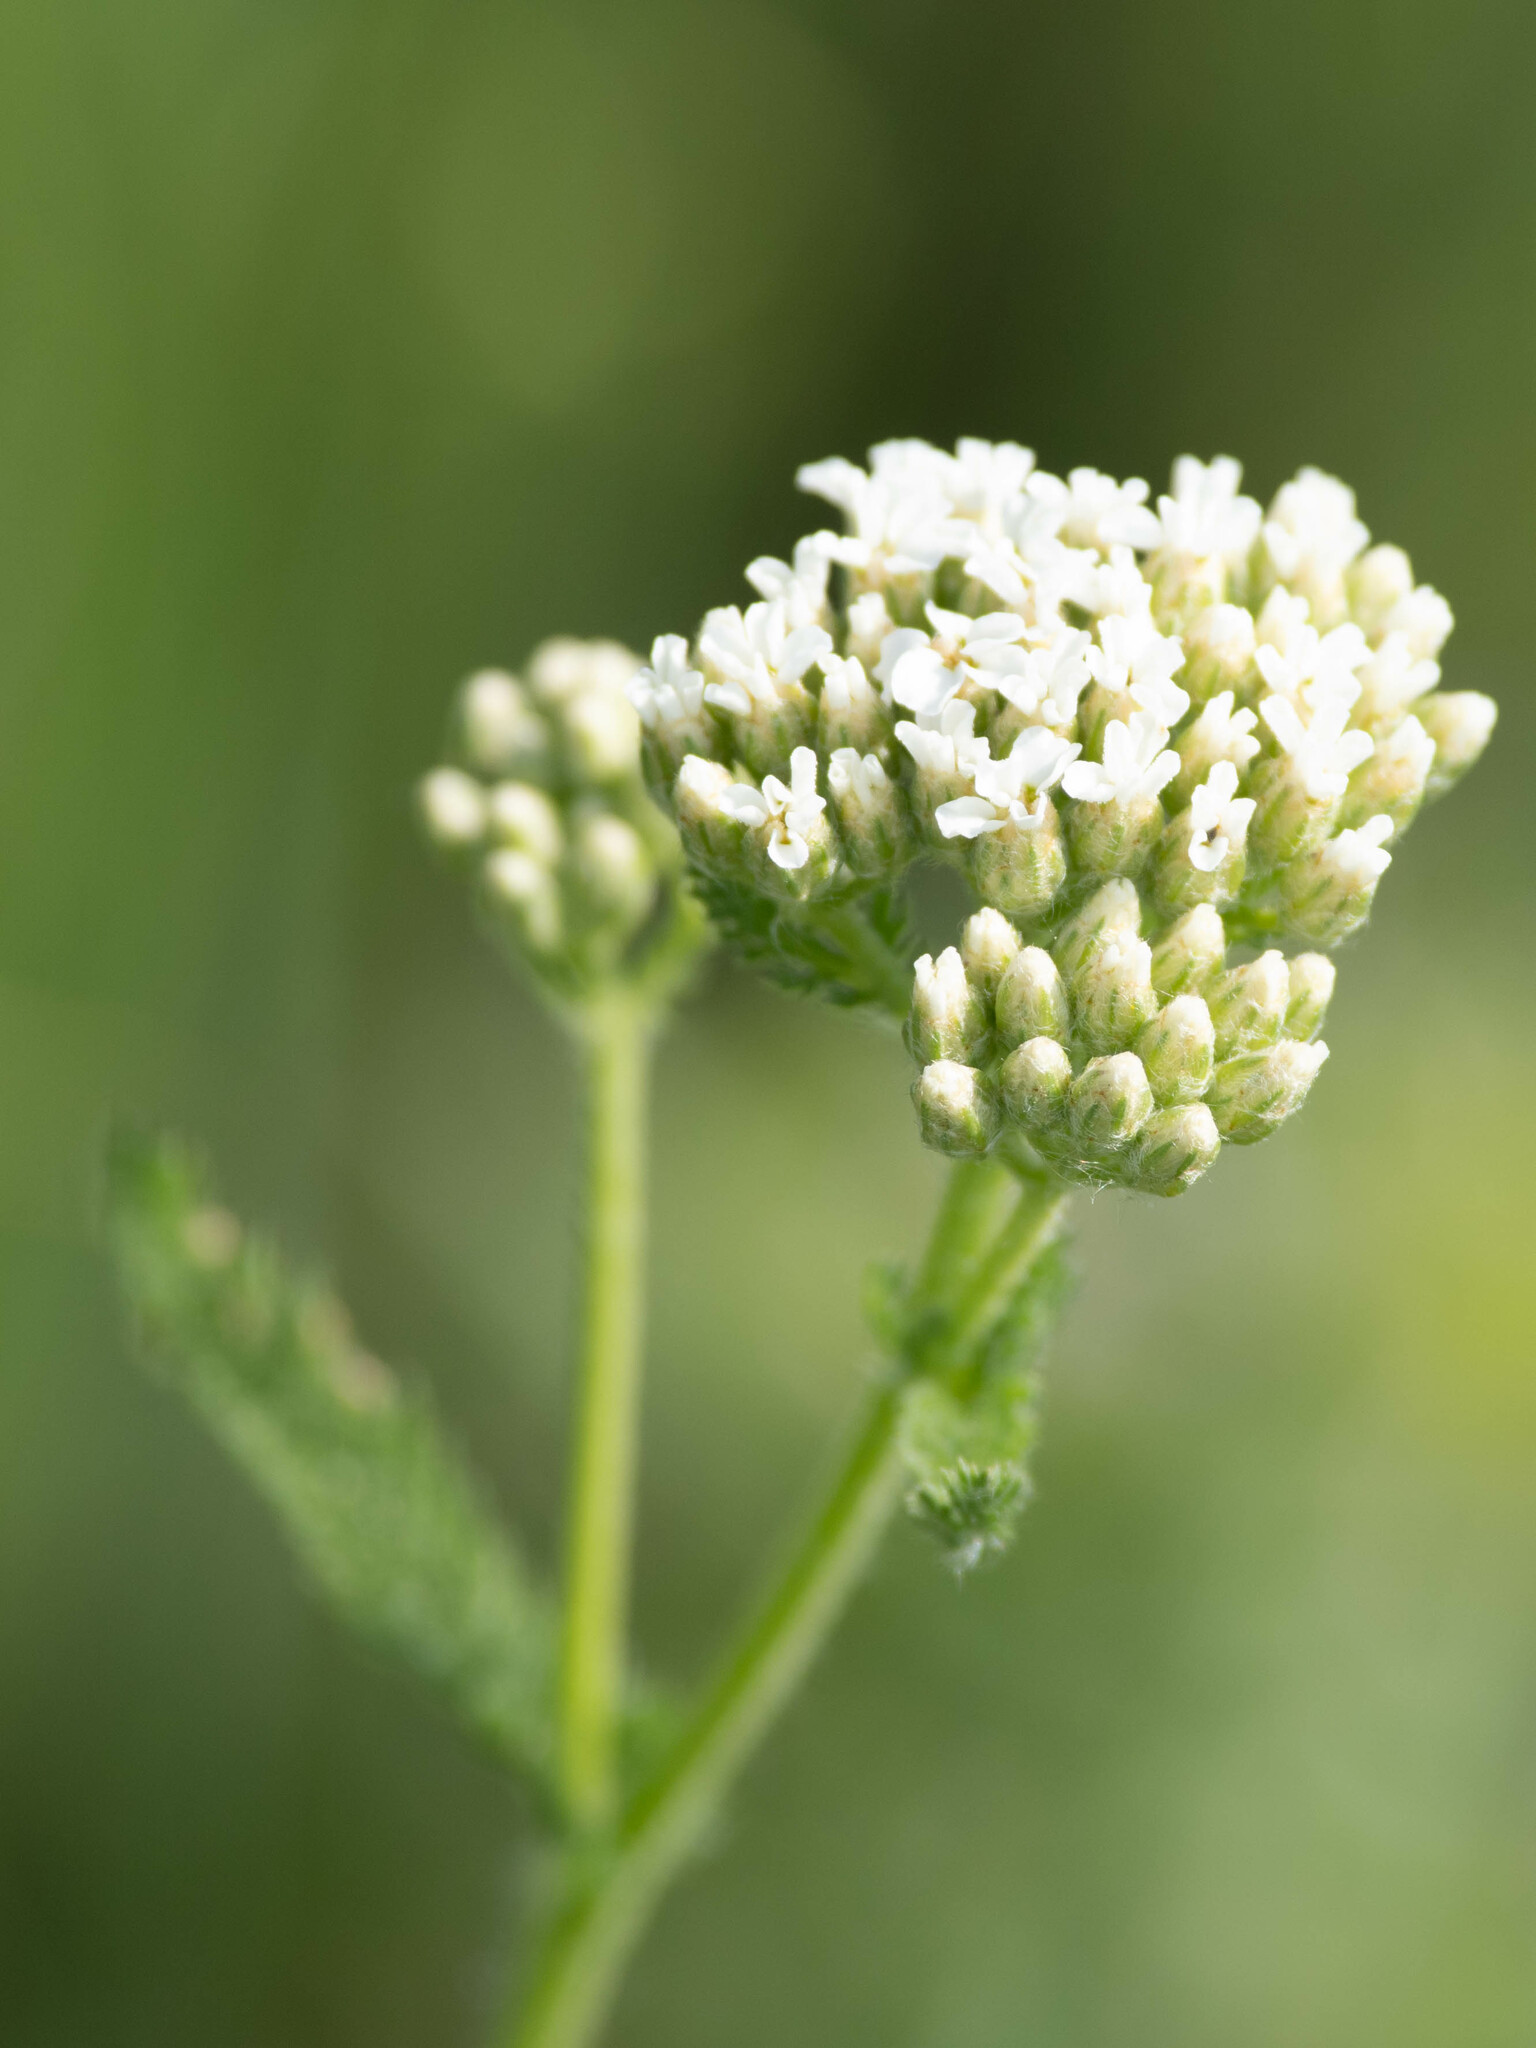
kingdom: Plantae
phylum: Tracheophyta
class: Magnoliopsida
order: Asterales
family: Asteraceae
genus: Achillea
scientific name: Achillea millefolium
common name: Yarrow
